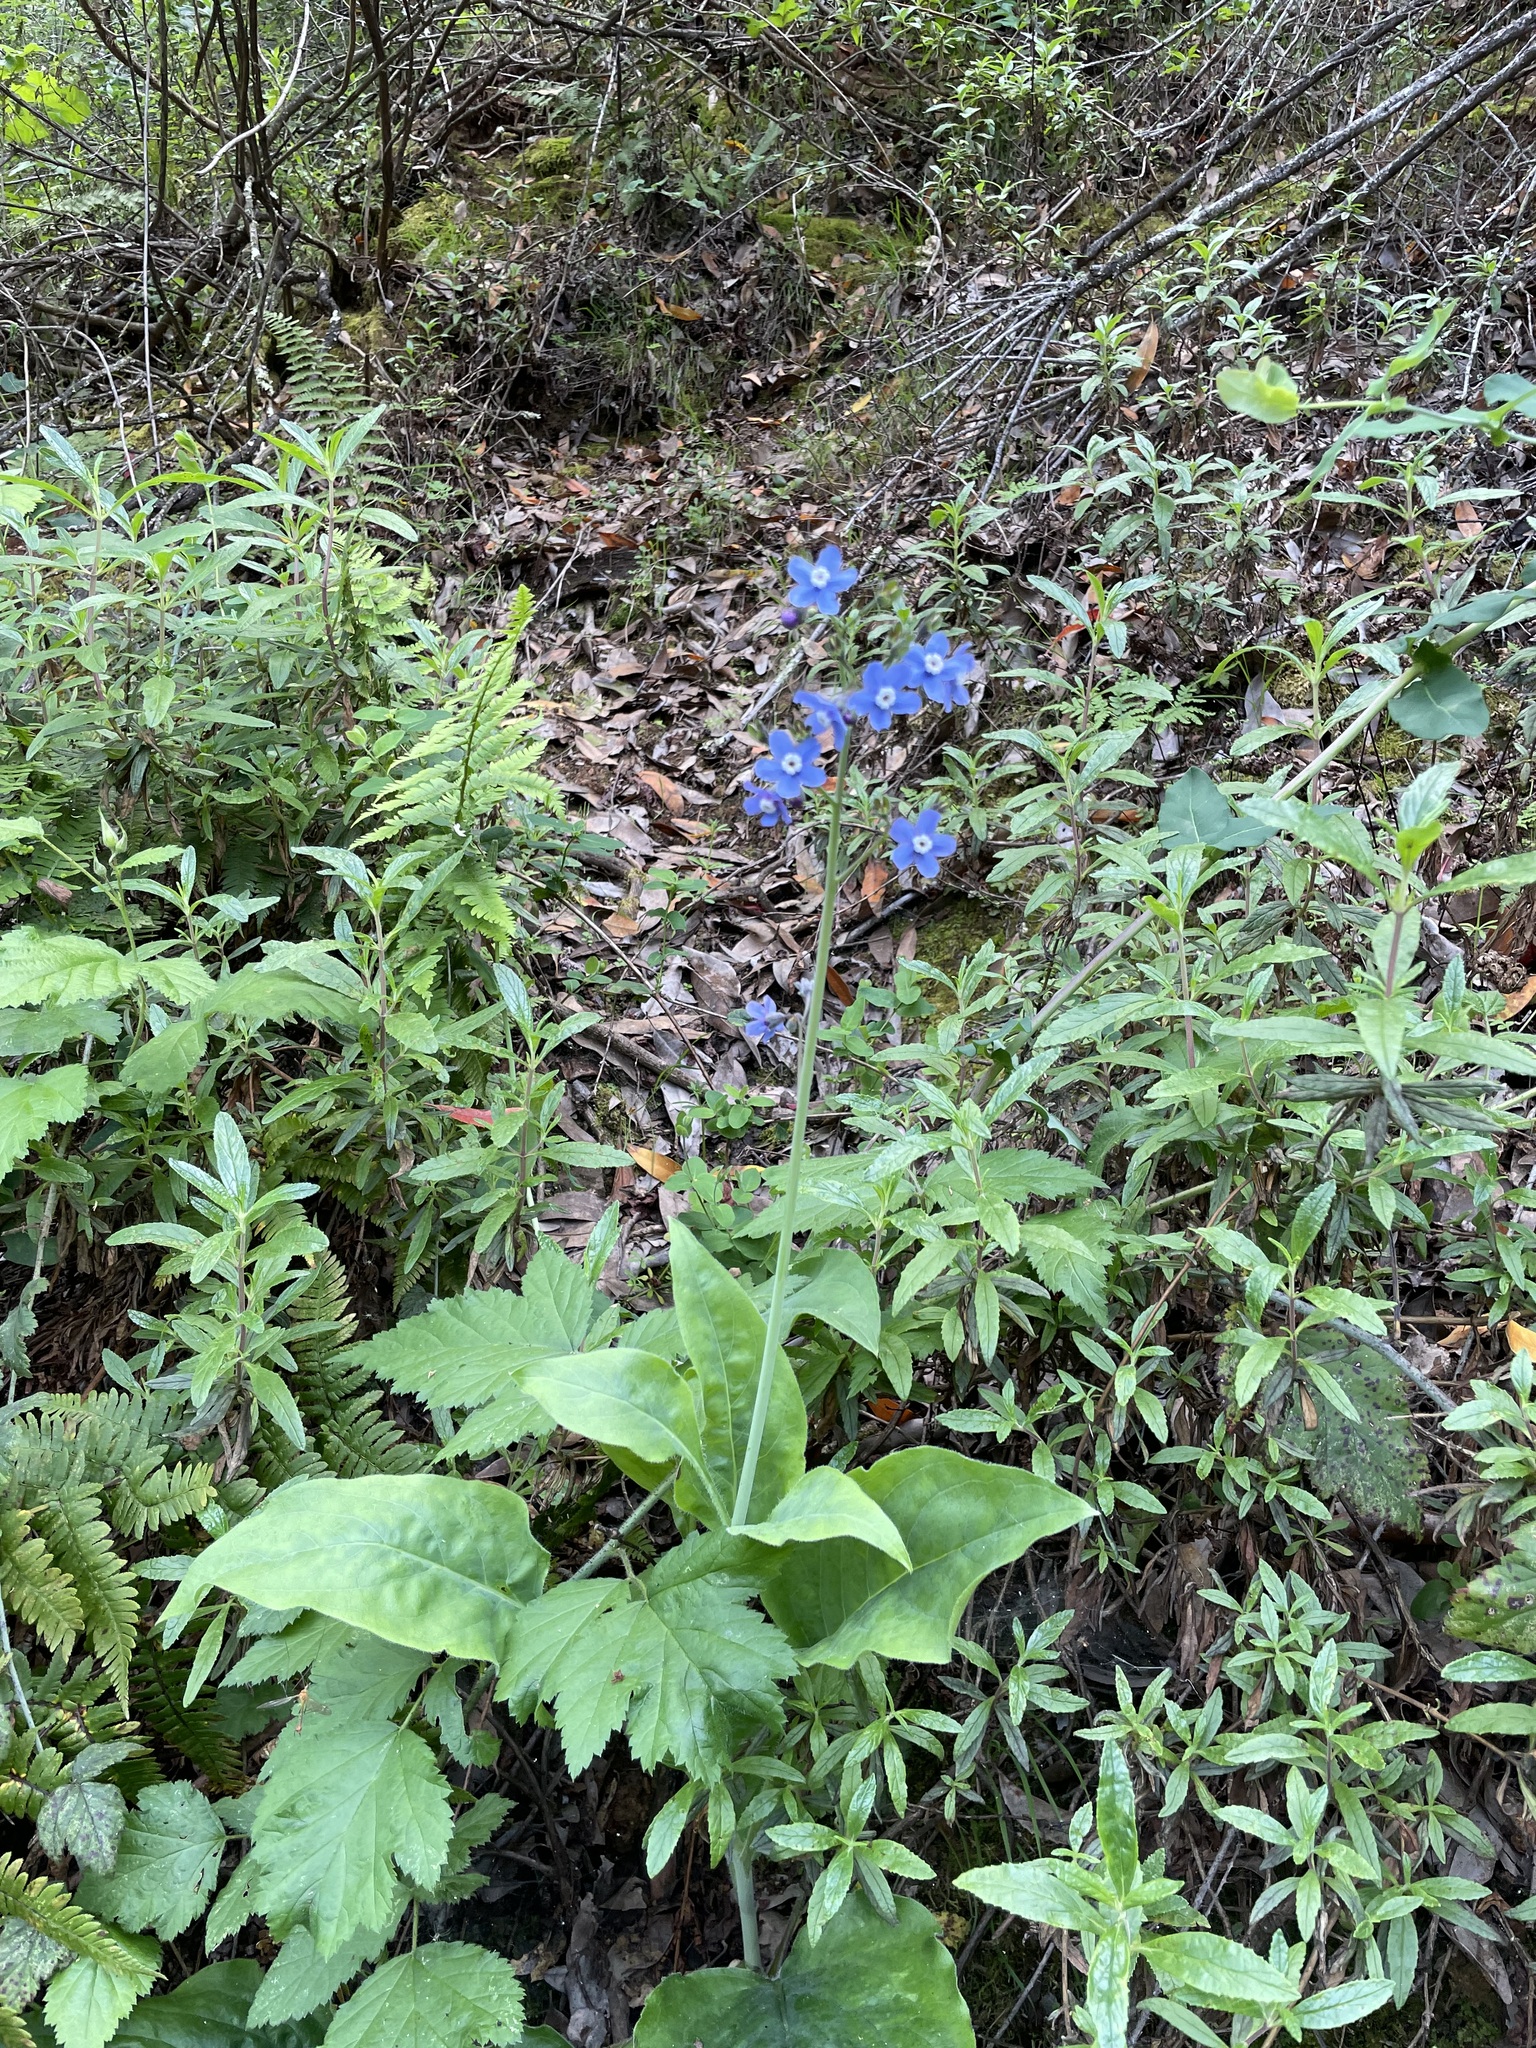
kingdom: Plantae
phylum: Tracheophyta
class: Magnoliopsida
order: Boraginales
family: Boraginaceae
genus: Adelinia
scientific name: Adelinia grande
